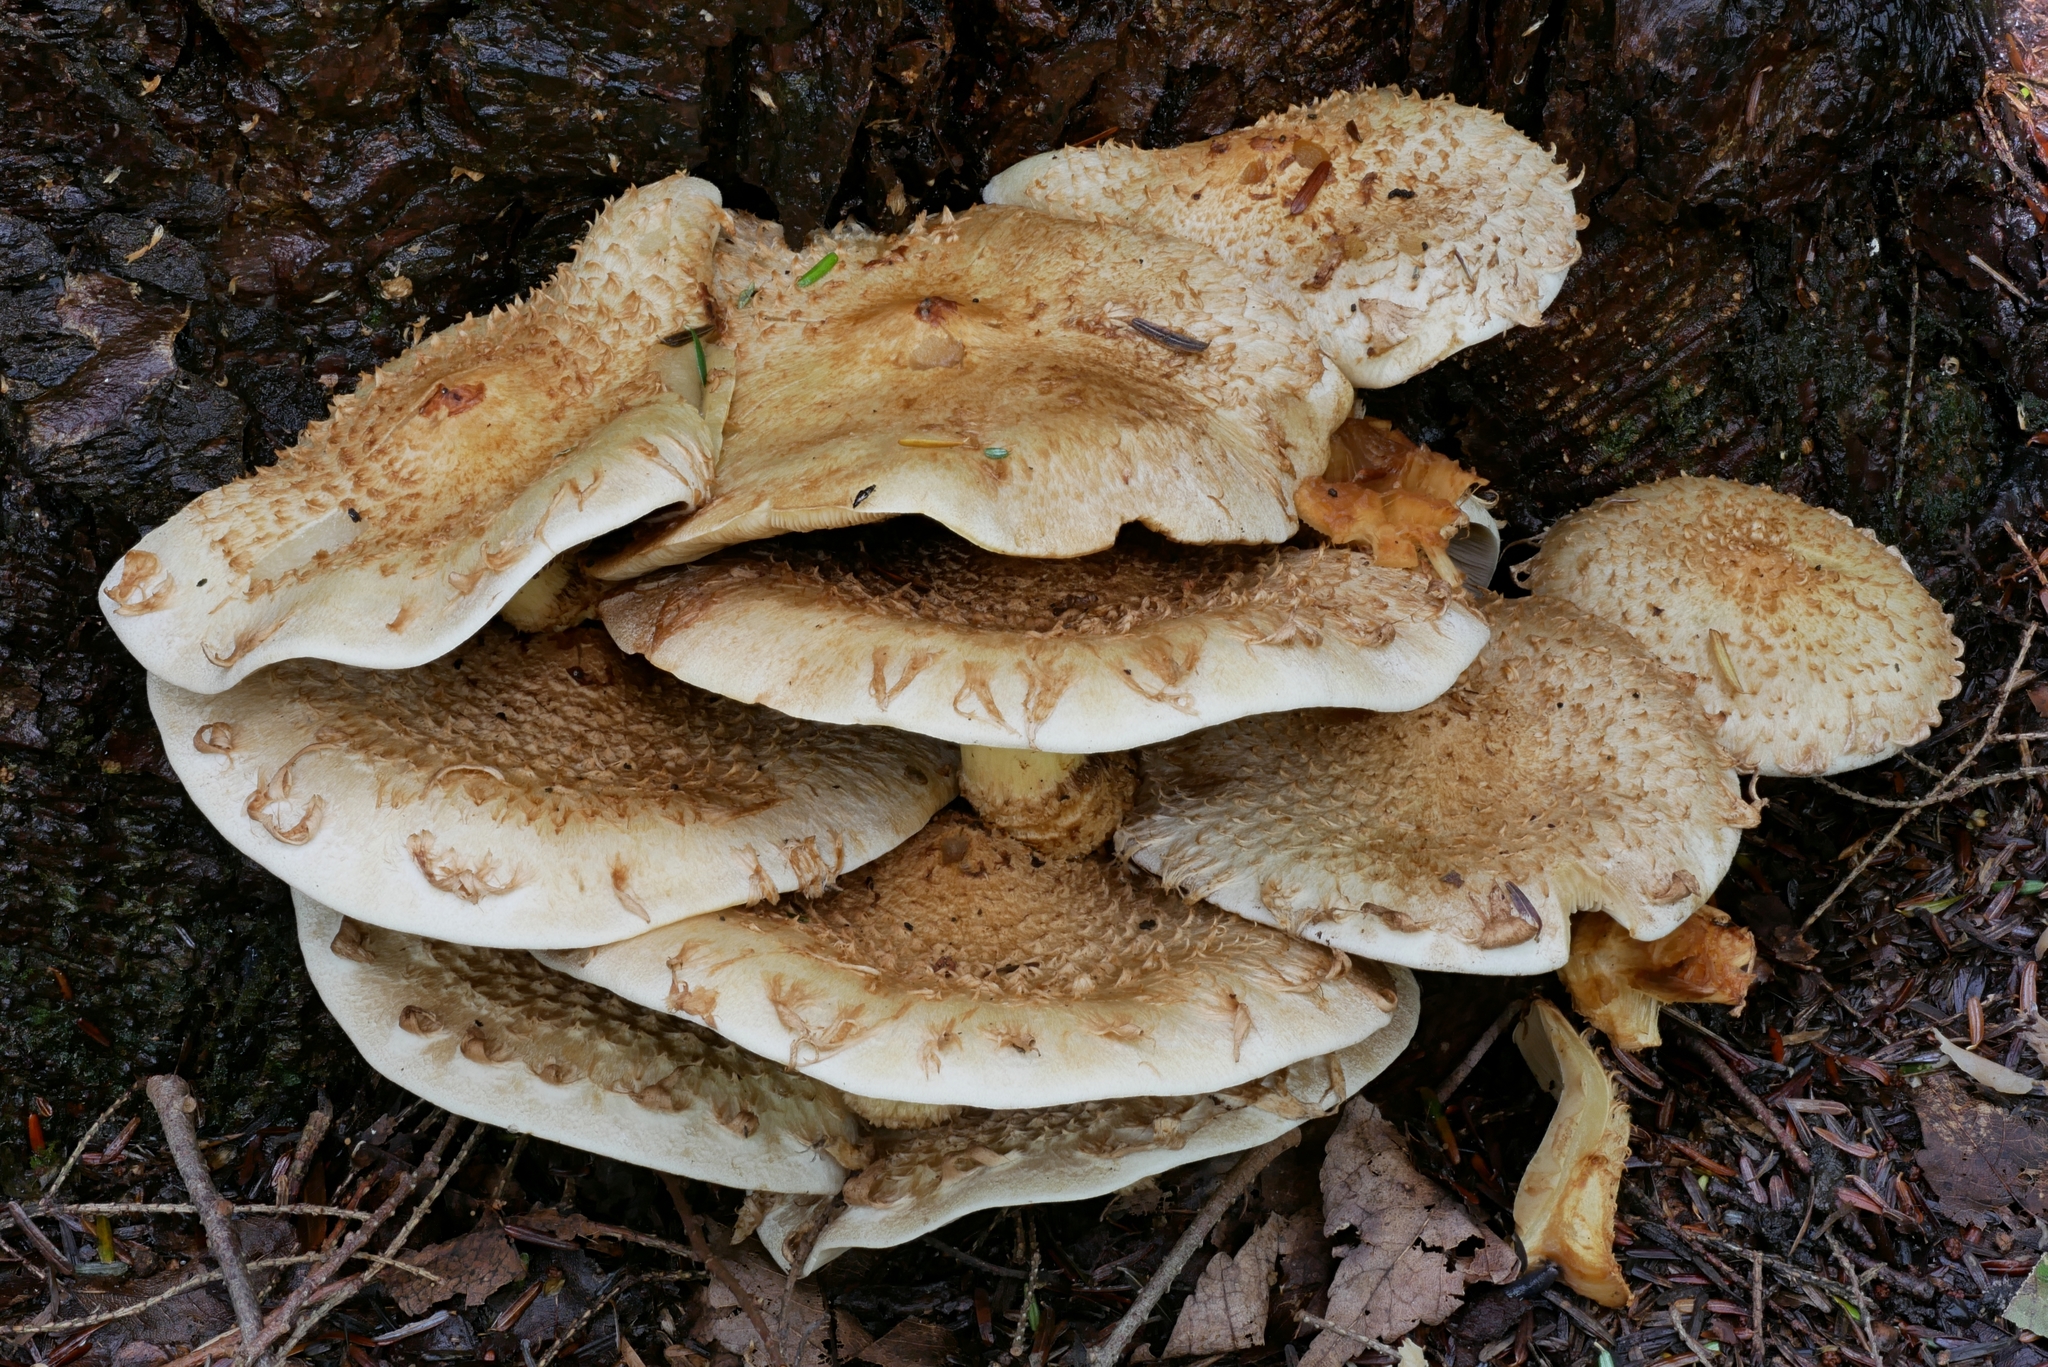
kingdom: Fungi
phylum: Basidiomycota
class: Agaricomycetes
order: Agaricales
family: Strophariaceae
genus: Pholiota
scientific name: Pholiota squarrosa
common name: Shaggy pholiota
